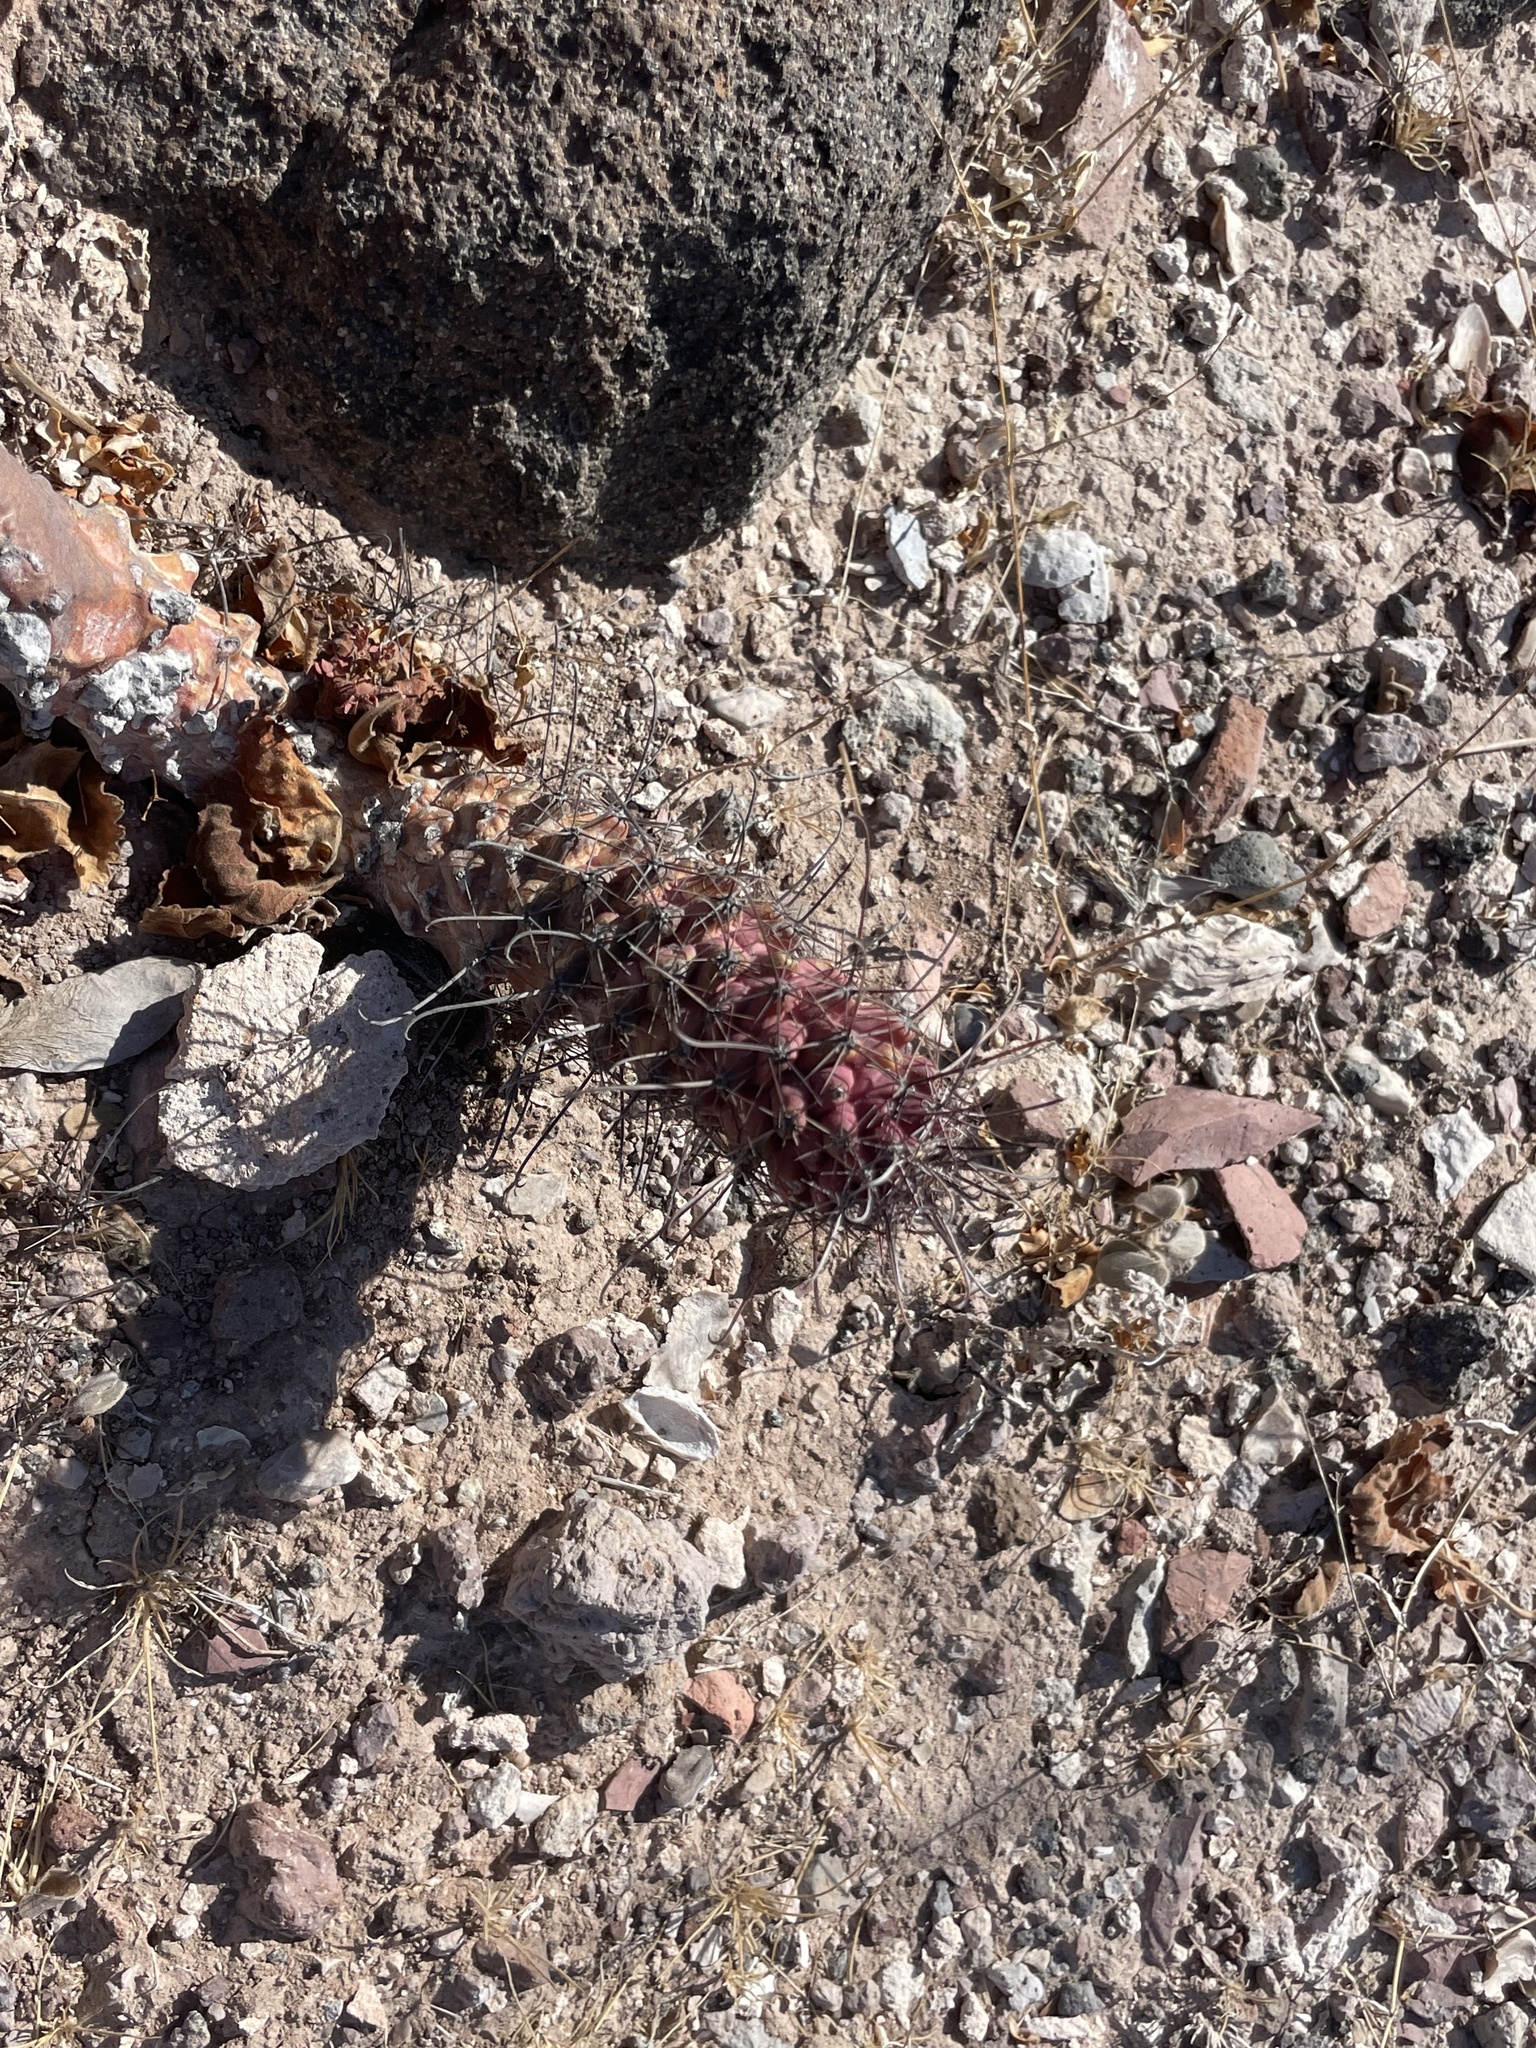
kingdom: Plantae
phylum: Tracheophyta
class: Magnoliopsida
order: Caryophyllales
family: Cactaceae
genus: Cochemiea
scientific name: Cochemiea poselgeri
